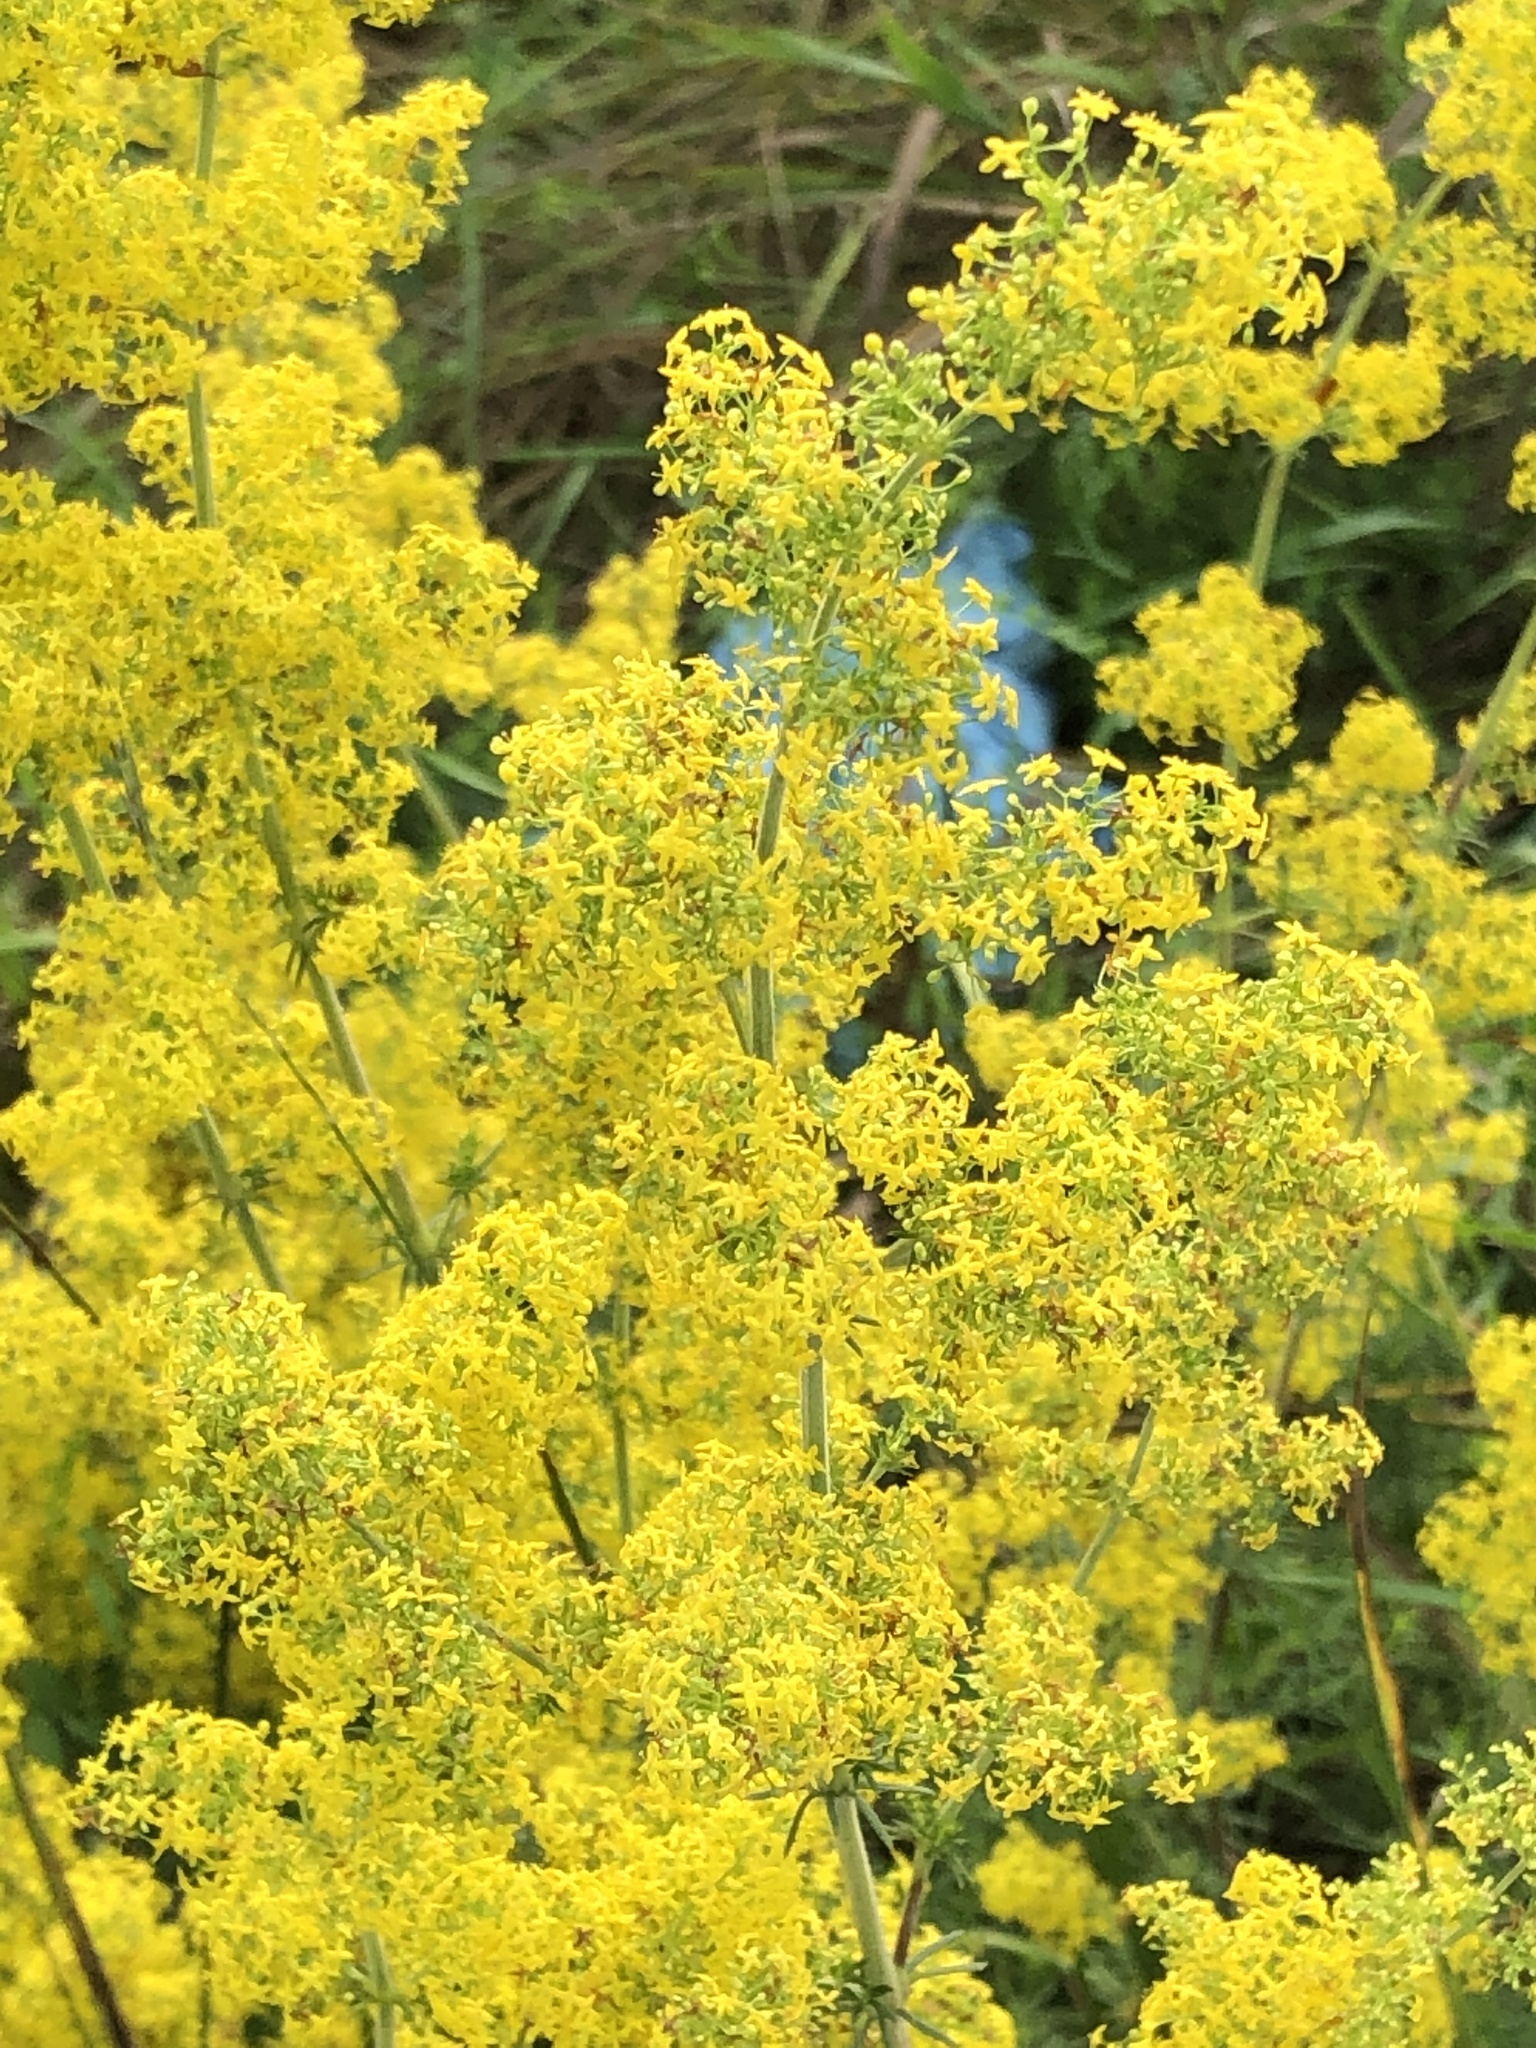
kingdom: Plantae
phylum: Tracheophyta
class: Magnoliopsida
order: Gentianales
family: Rubiaceae
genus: Galium
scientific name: Galium verum
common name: Lady's bedstraw
